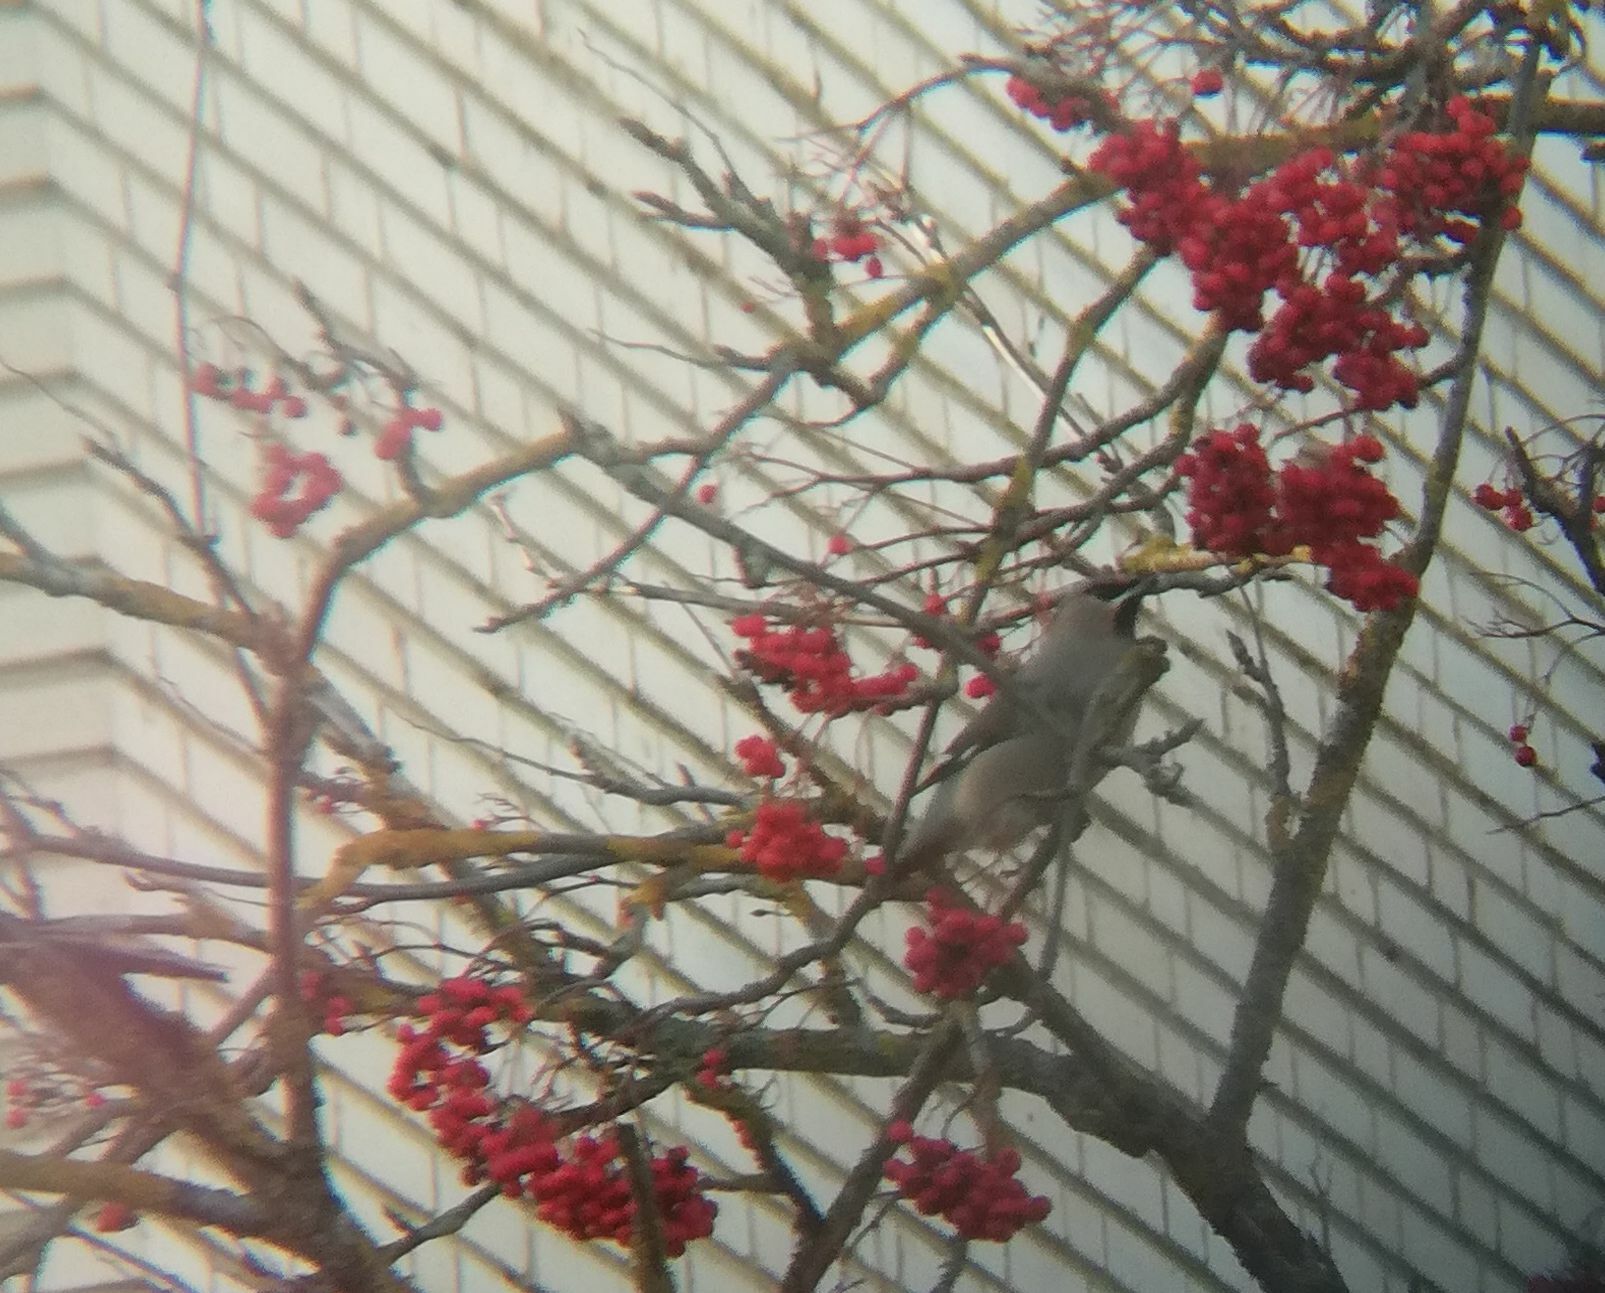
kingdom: Animalia
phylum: Chordata
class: Aves
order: Passeriformes
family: Bombycillidae
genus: Bombycilla
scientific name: Bombycilla garrulus
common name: Bohemian waxwing
